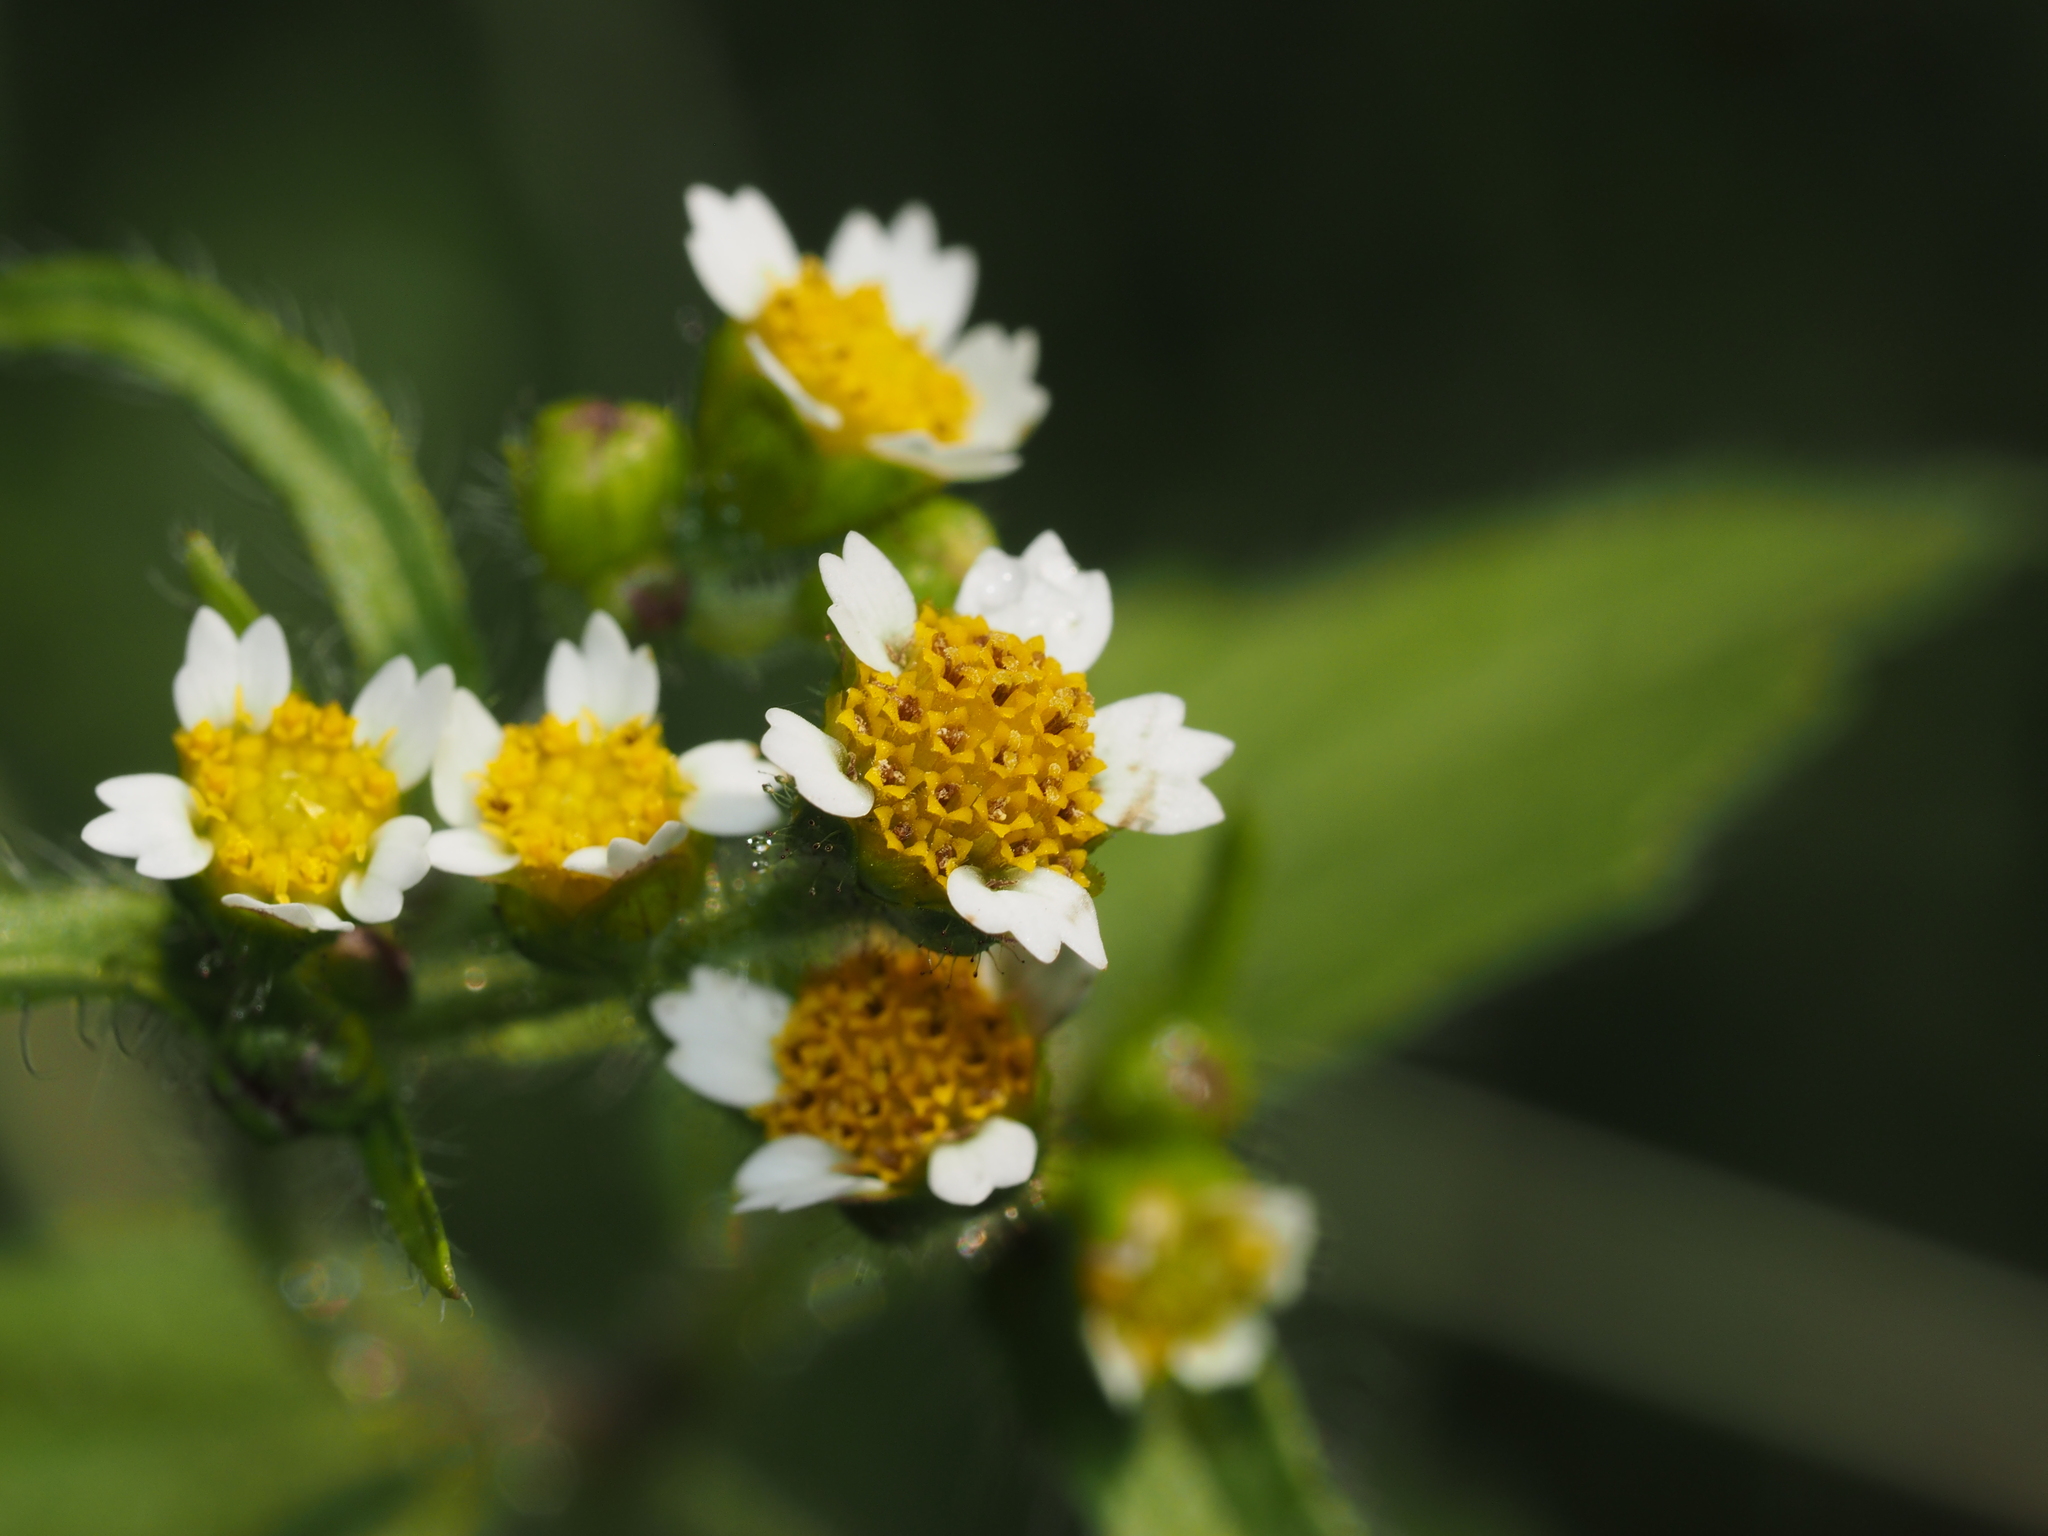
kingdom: Plantae
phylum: Tracheophyta
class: Magnoliopsida
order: Asterales
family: Asteraceae
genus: Galinsoga
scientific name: Galinsoga quadriradiata
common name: Shaggy soldier
